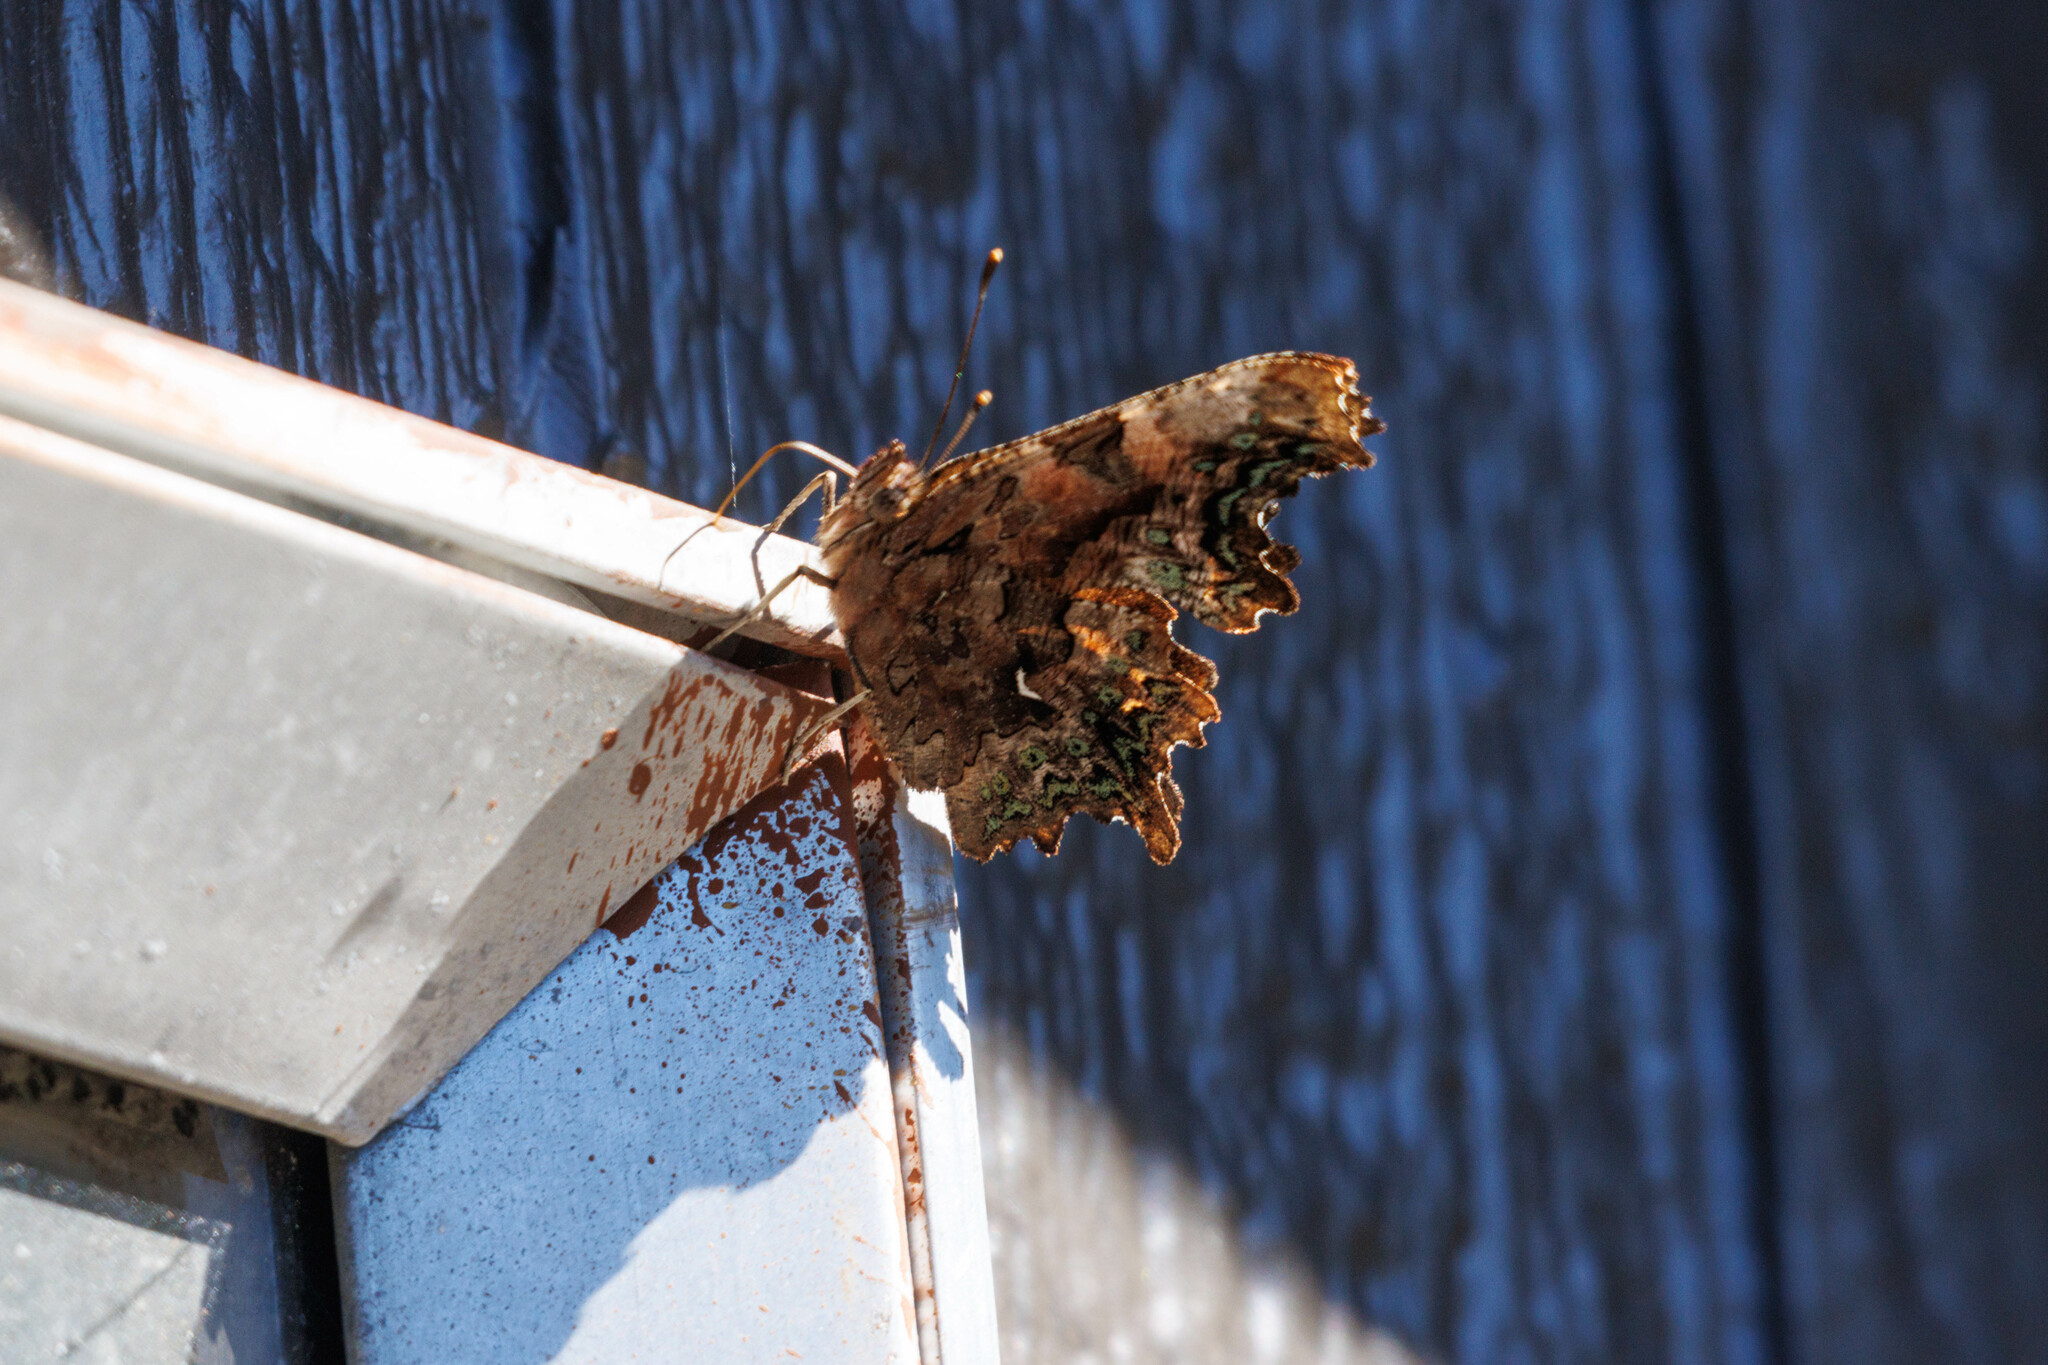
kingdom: Animalia
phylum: Arthropoda
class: Insecta
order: Lepidoptera
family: Nymphalidae
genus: Polygonia
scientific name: Polygonia faunus
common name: Green comma
